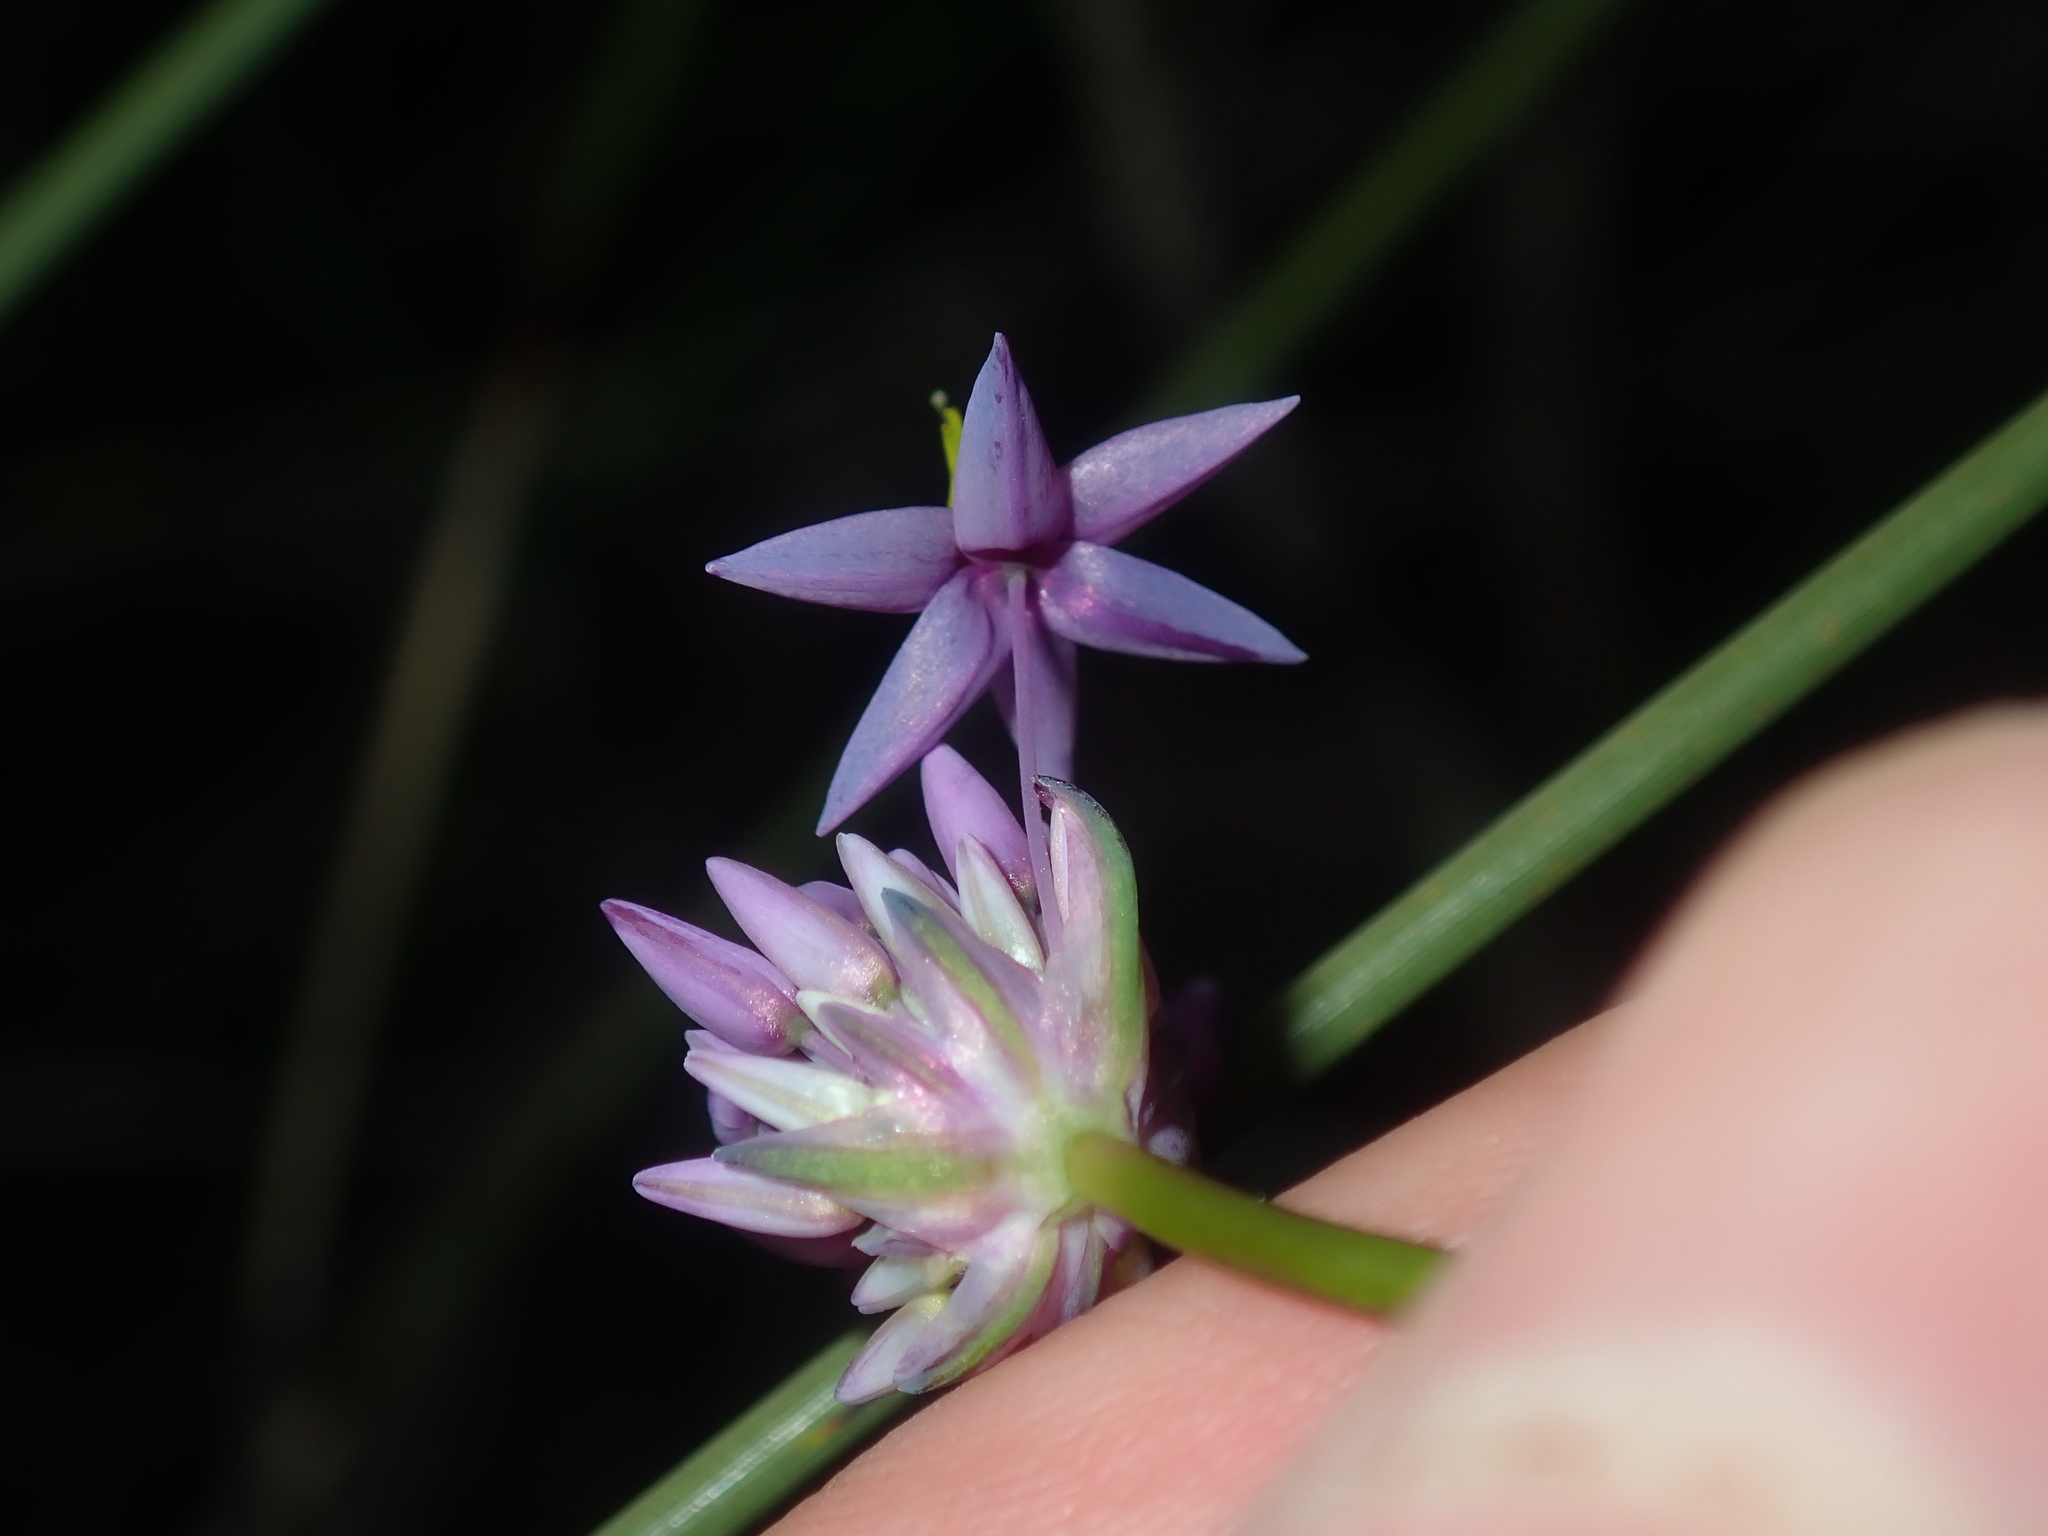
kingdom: Plantae
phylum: Tracheophyta
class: Liliopsida
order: Asparagales
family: Asparagaceae
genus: Sowerbaea
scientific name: Sowerbaea laxiflora
